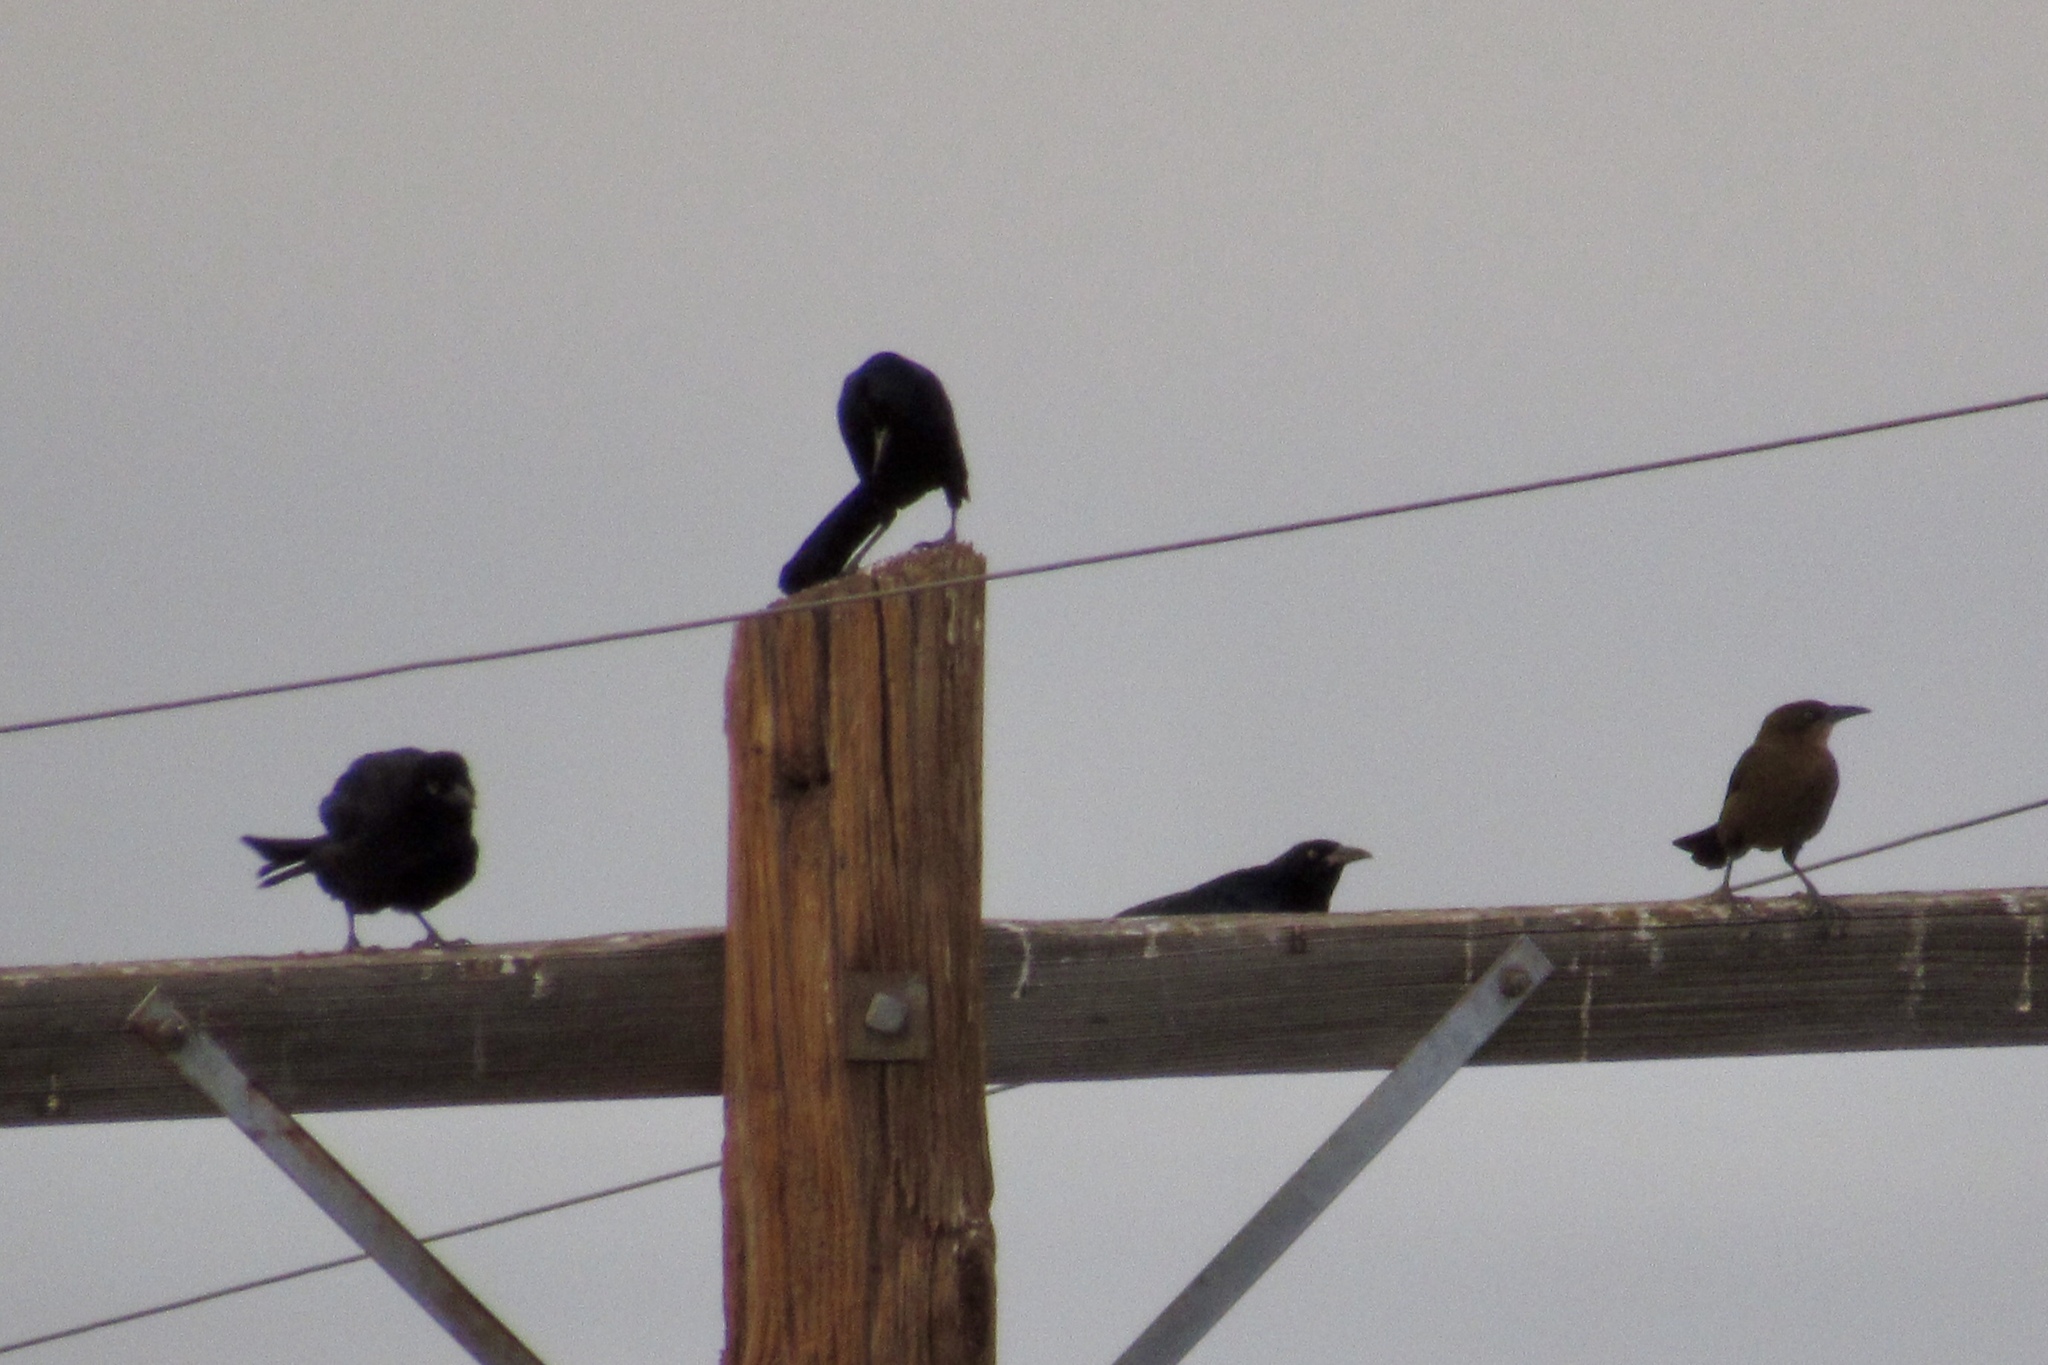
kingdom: Animalia
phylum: Chordata
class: Aves
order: Passeriformes
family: Icteridae
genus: Quiscalus
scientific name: Quiscalus mexicanus
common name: Great-tailed grackle
